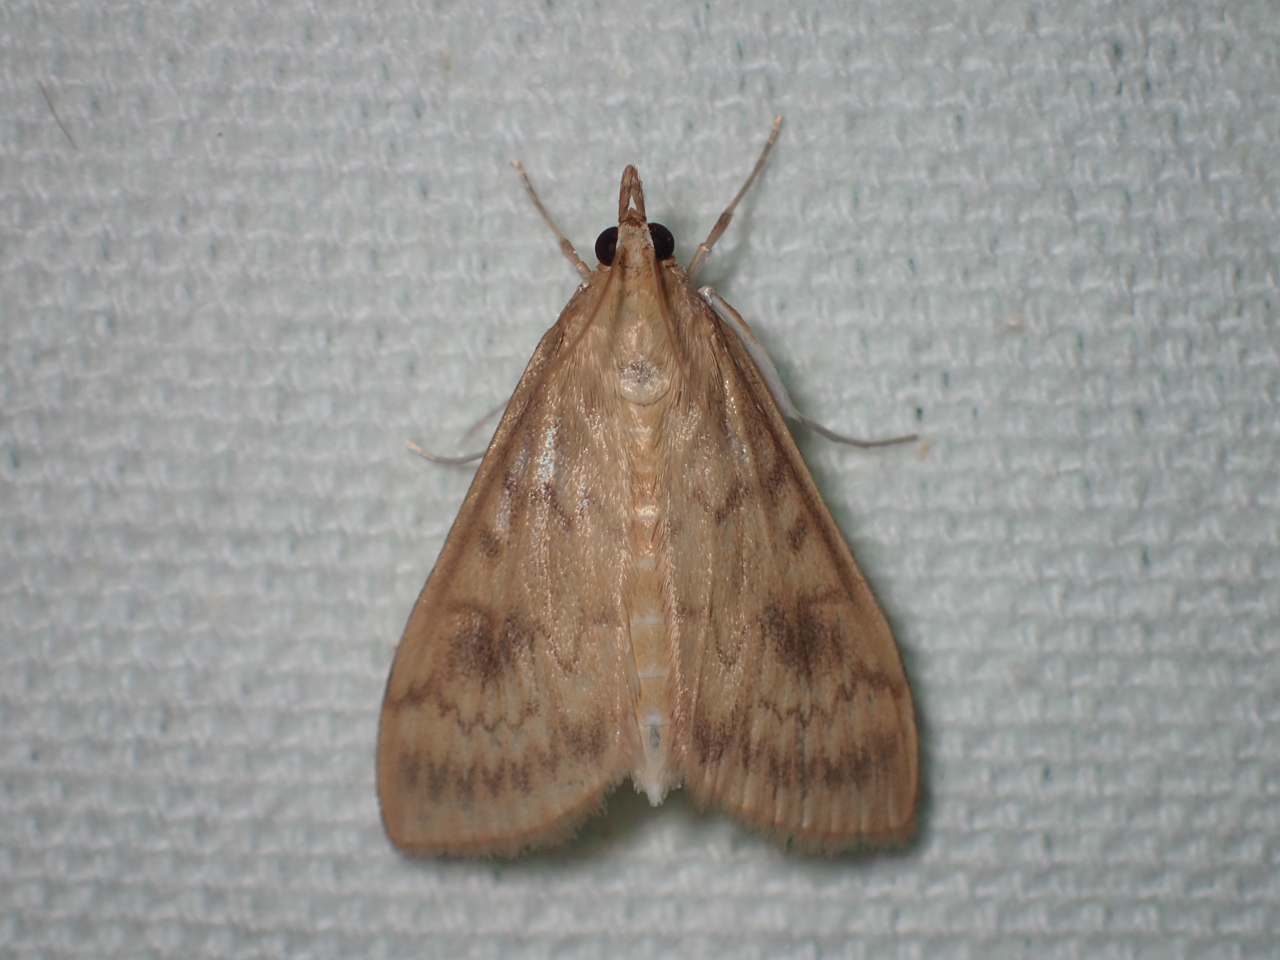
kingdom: Animalia
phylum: Arthropoda
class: Insecta
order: Lepidoptera
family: Crambidae
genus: Ostrinia
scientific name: Ostrinia penitalis
